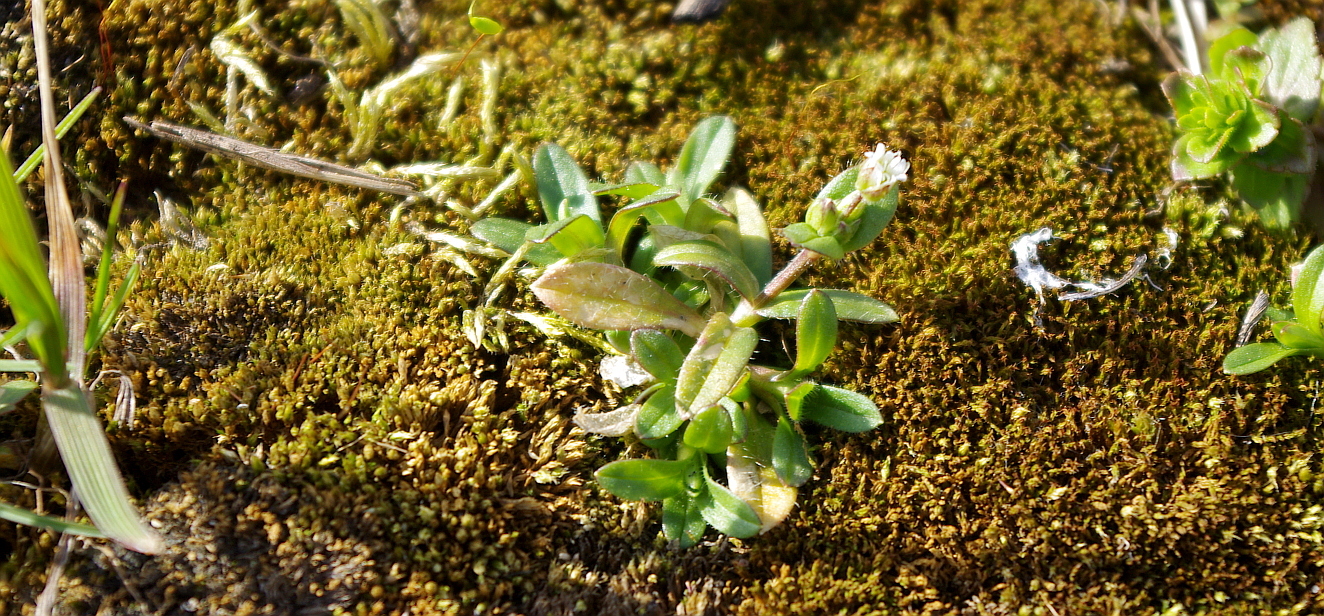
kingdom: Plantae
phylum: Tracheophyta
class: Magnoliopsida
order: Caryophyllales
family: Caryophyllaceae
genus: Cerastium
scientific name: Cerastium holosteoides
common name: Big chickweed
